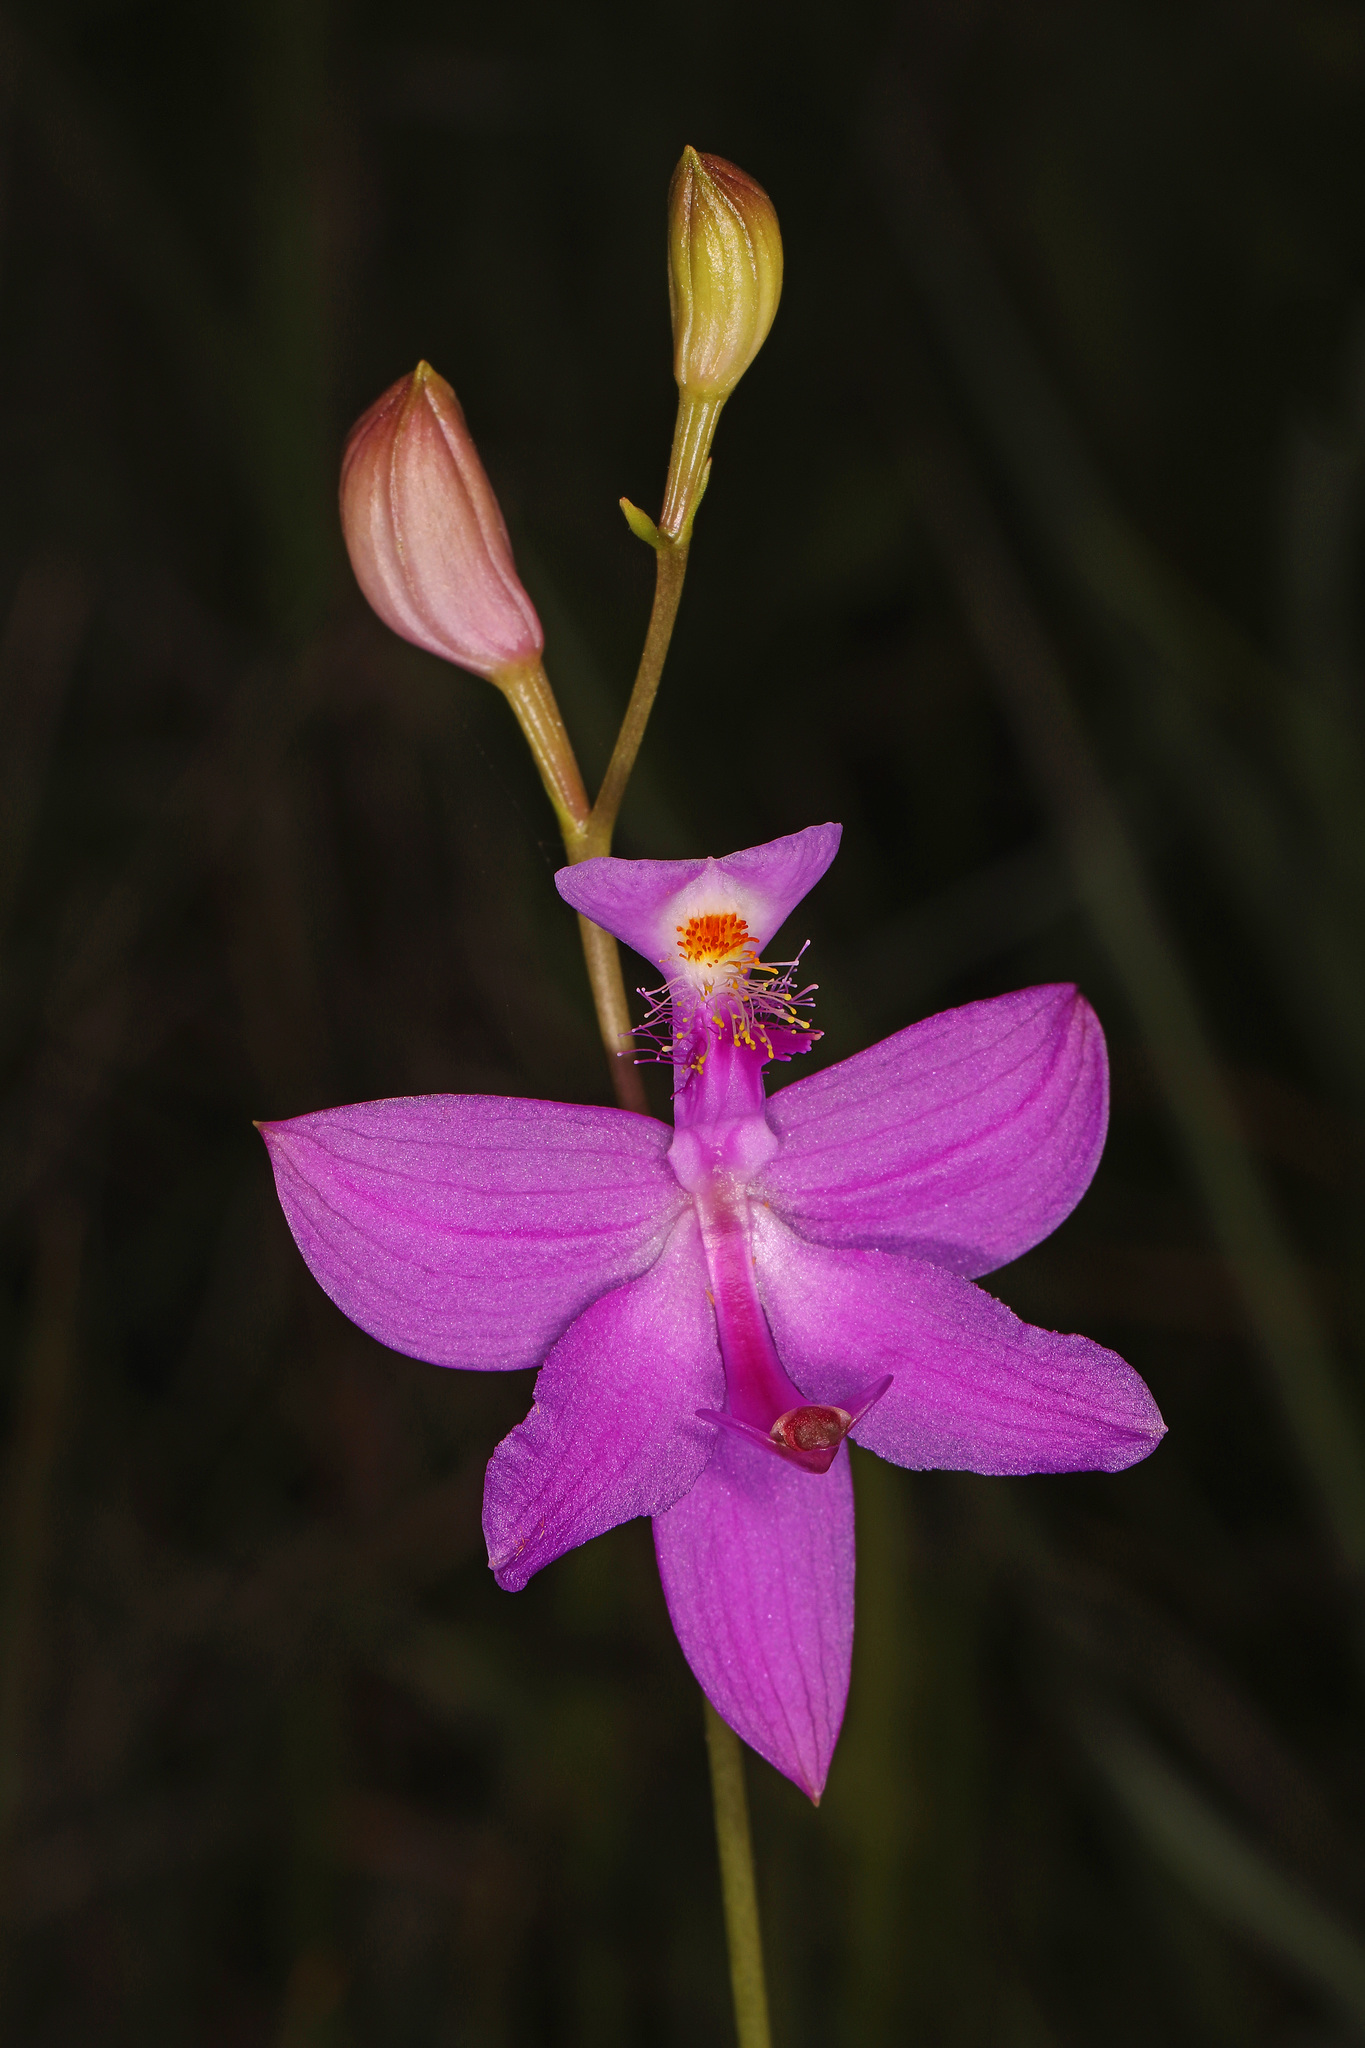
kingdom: Plantae
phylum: Tracheophyta
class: Liliopsida
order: Asparagales
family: Orchidaceae
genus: Calopogon
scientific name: Calopogon tuberosus
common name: Grass-pink
